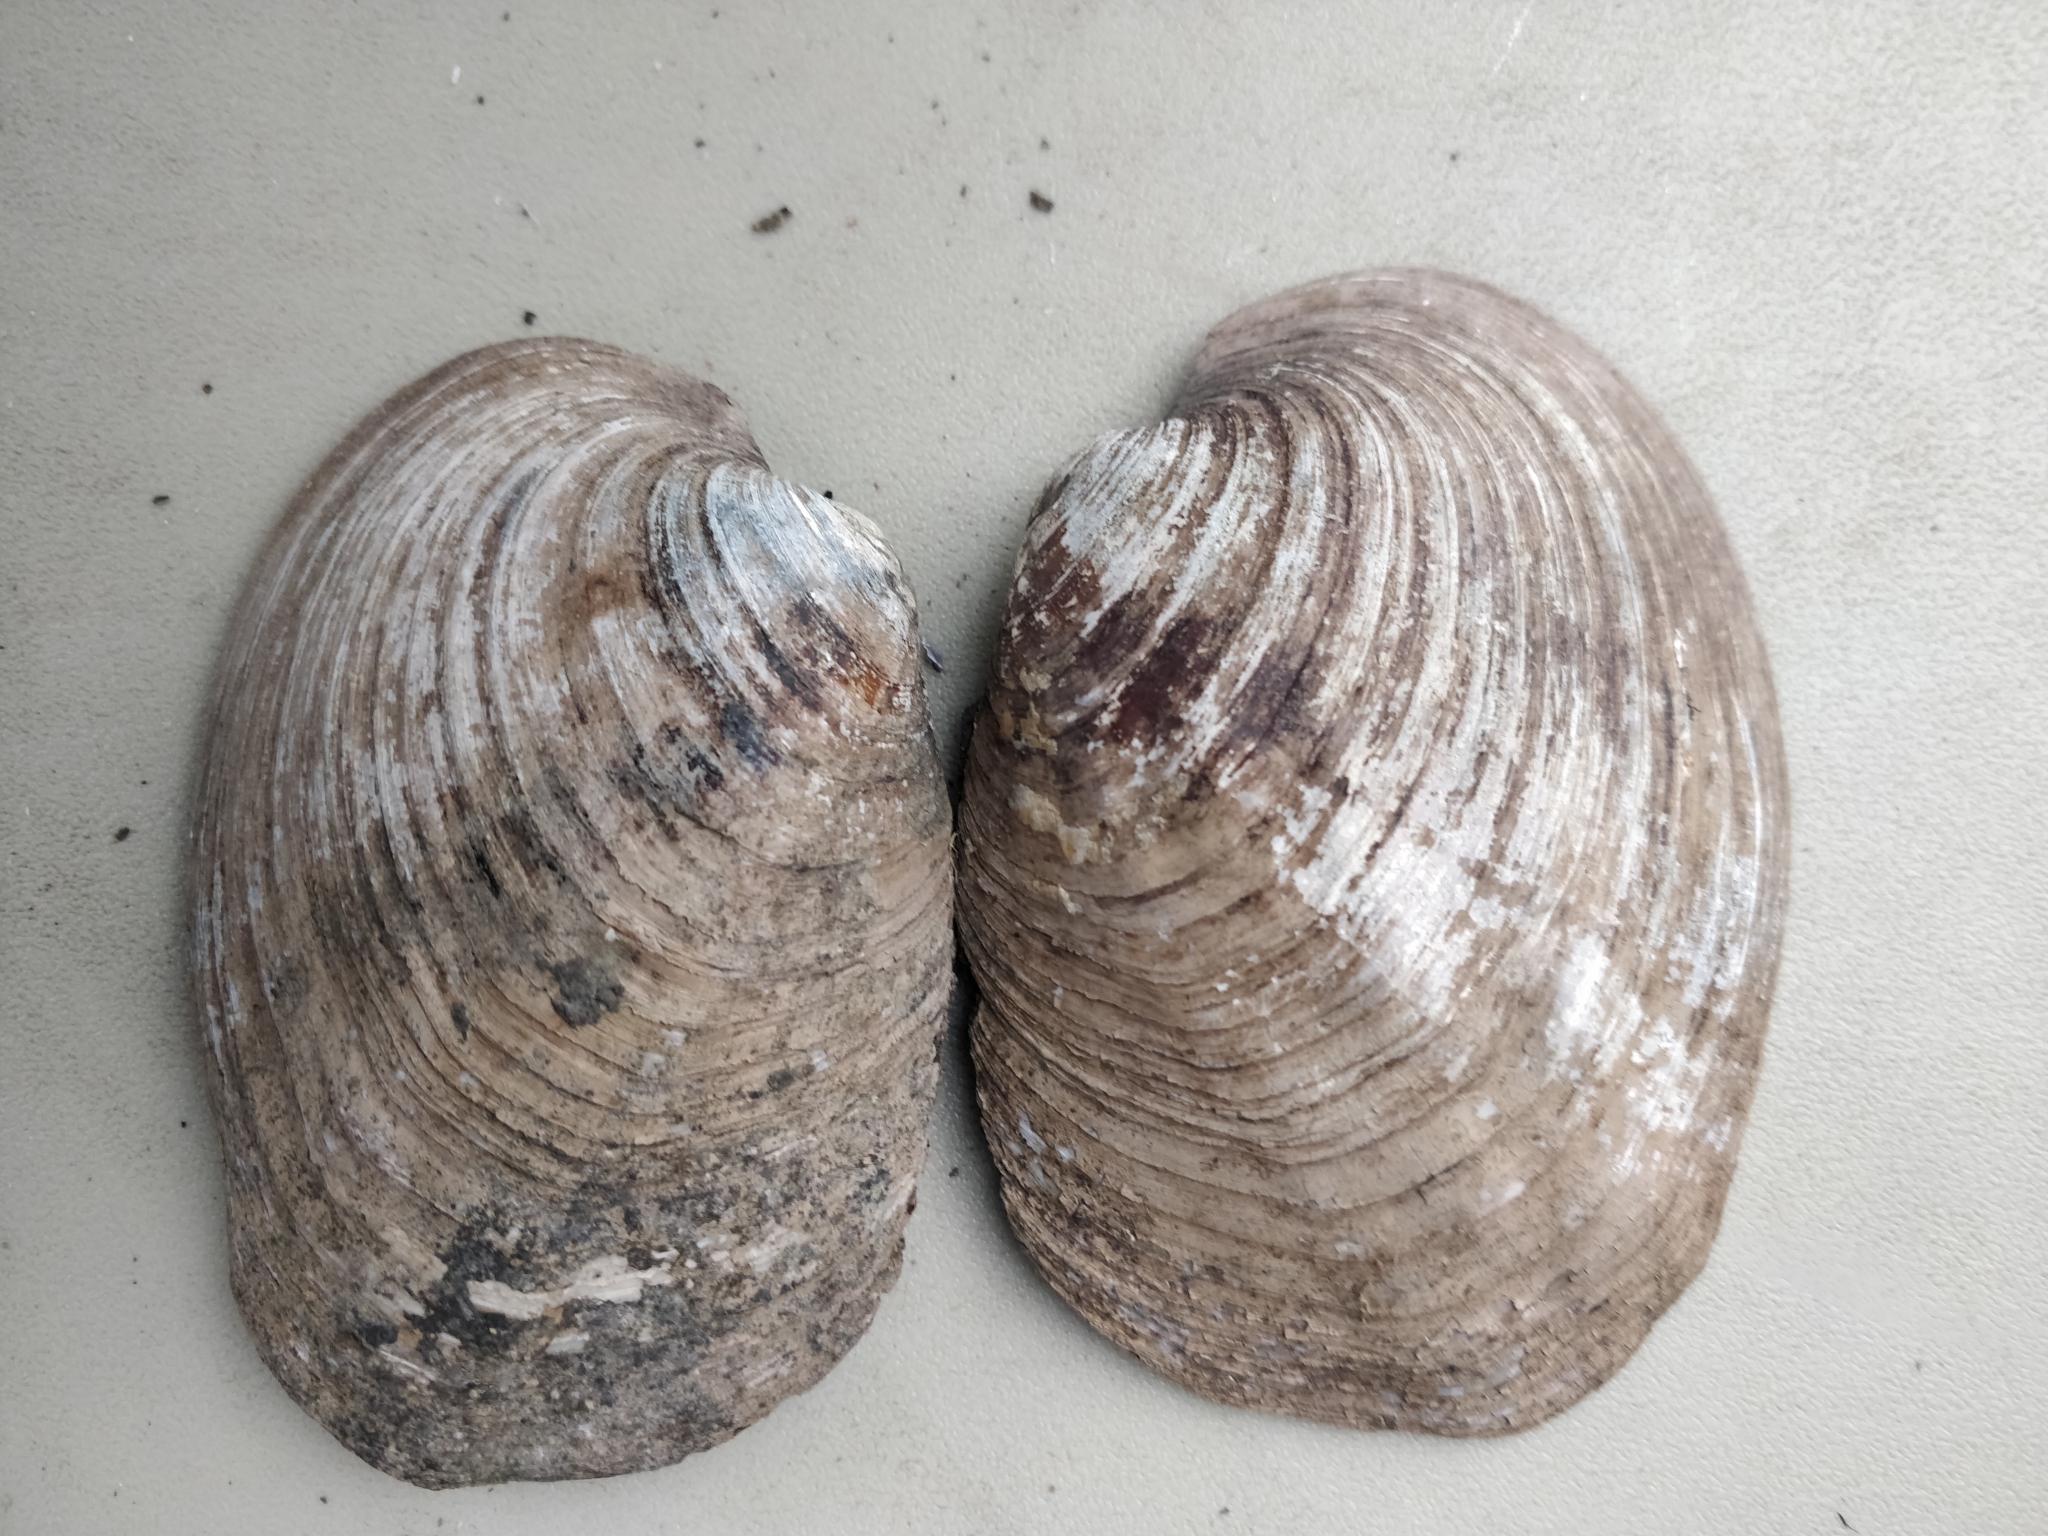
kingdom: Animalia
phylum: Mollusca
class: Bivalvia
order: Unionida
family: Unionidae
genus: Amblema
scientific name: Amblema plicata
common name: Threeridge
